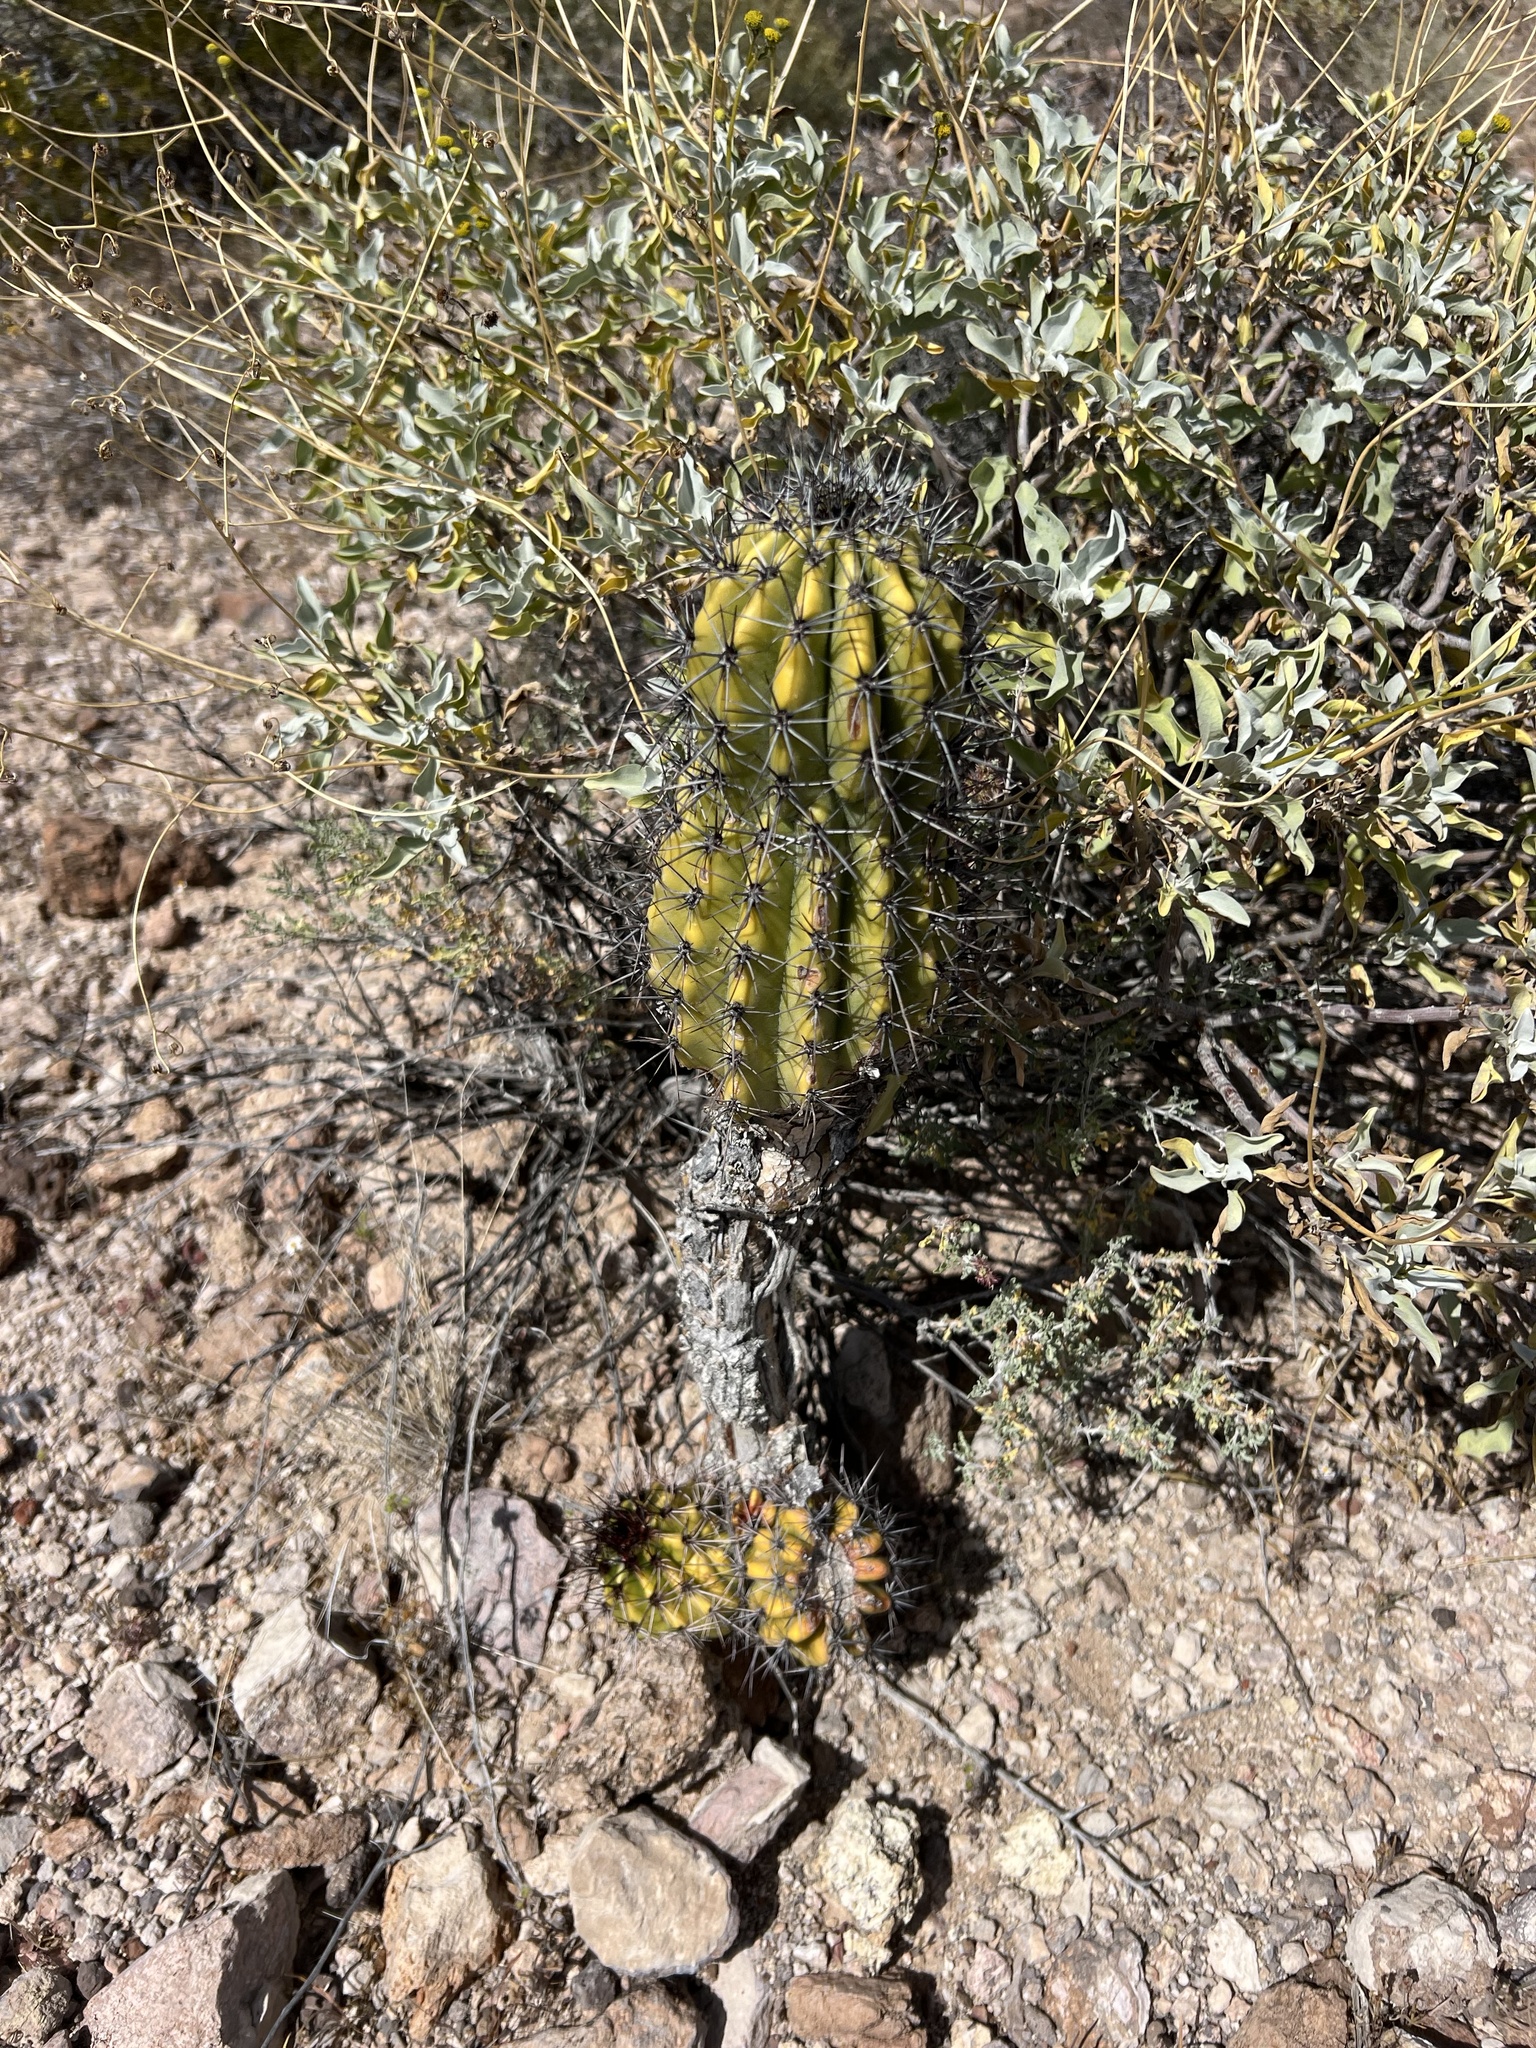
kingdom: Plantae
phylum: Tracheophyta
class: Magnoliopsida
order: Caryophyllales
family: Cactaceae
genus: Stenocereus
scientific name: Stenocereus thurberi
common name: Organ pipe cactus
